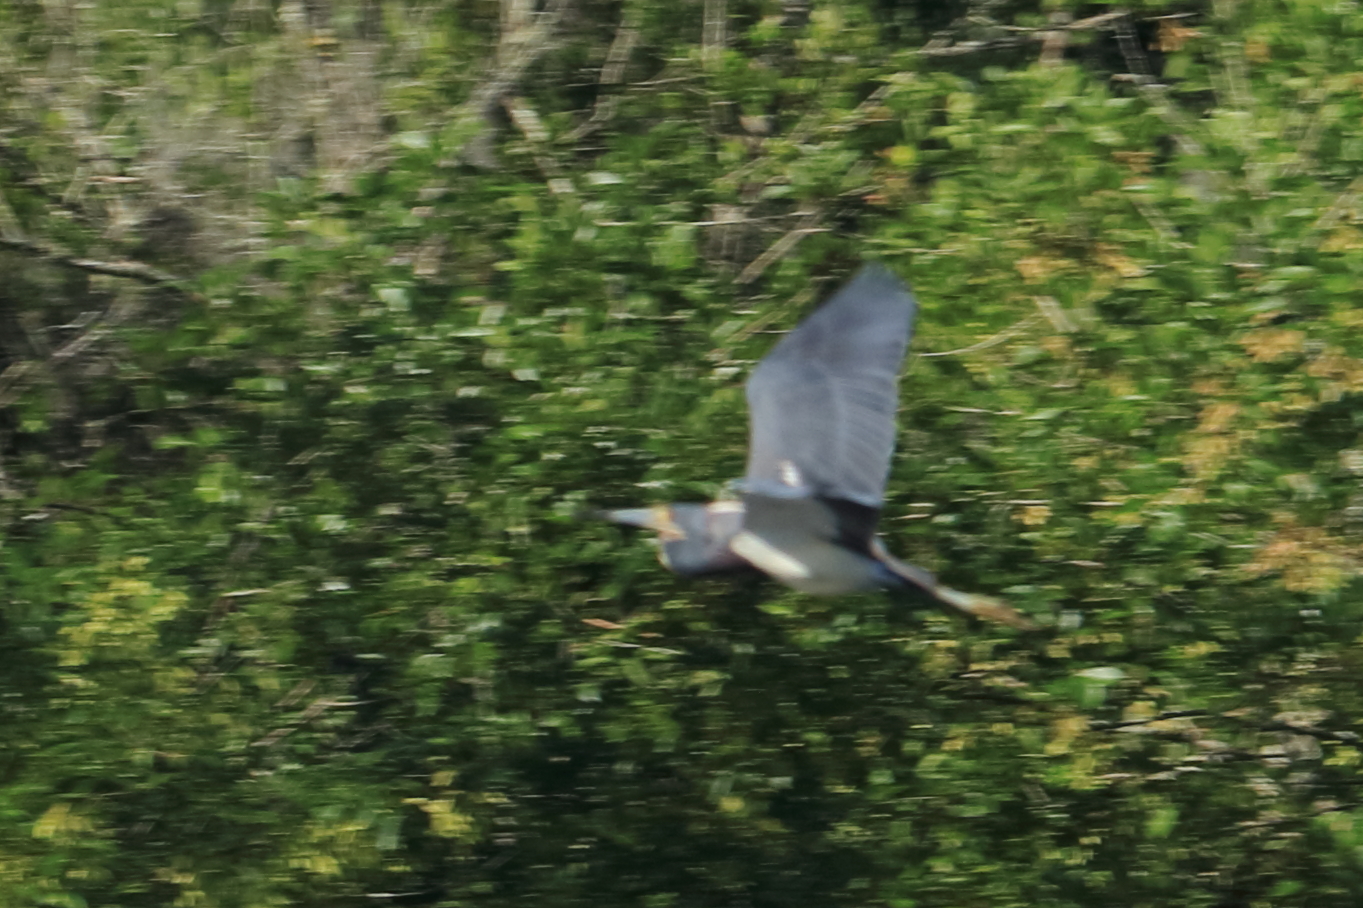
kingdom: Animalia
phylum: Chordata
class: Aves
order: Pelecaniformes
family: Ardeidae
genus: Egretta
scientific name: Egretta tricolor
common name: Tricolored heron
